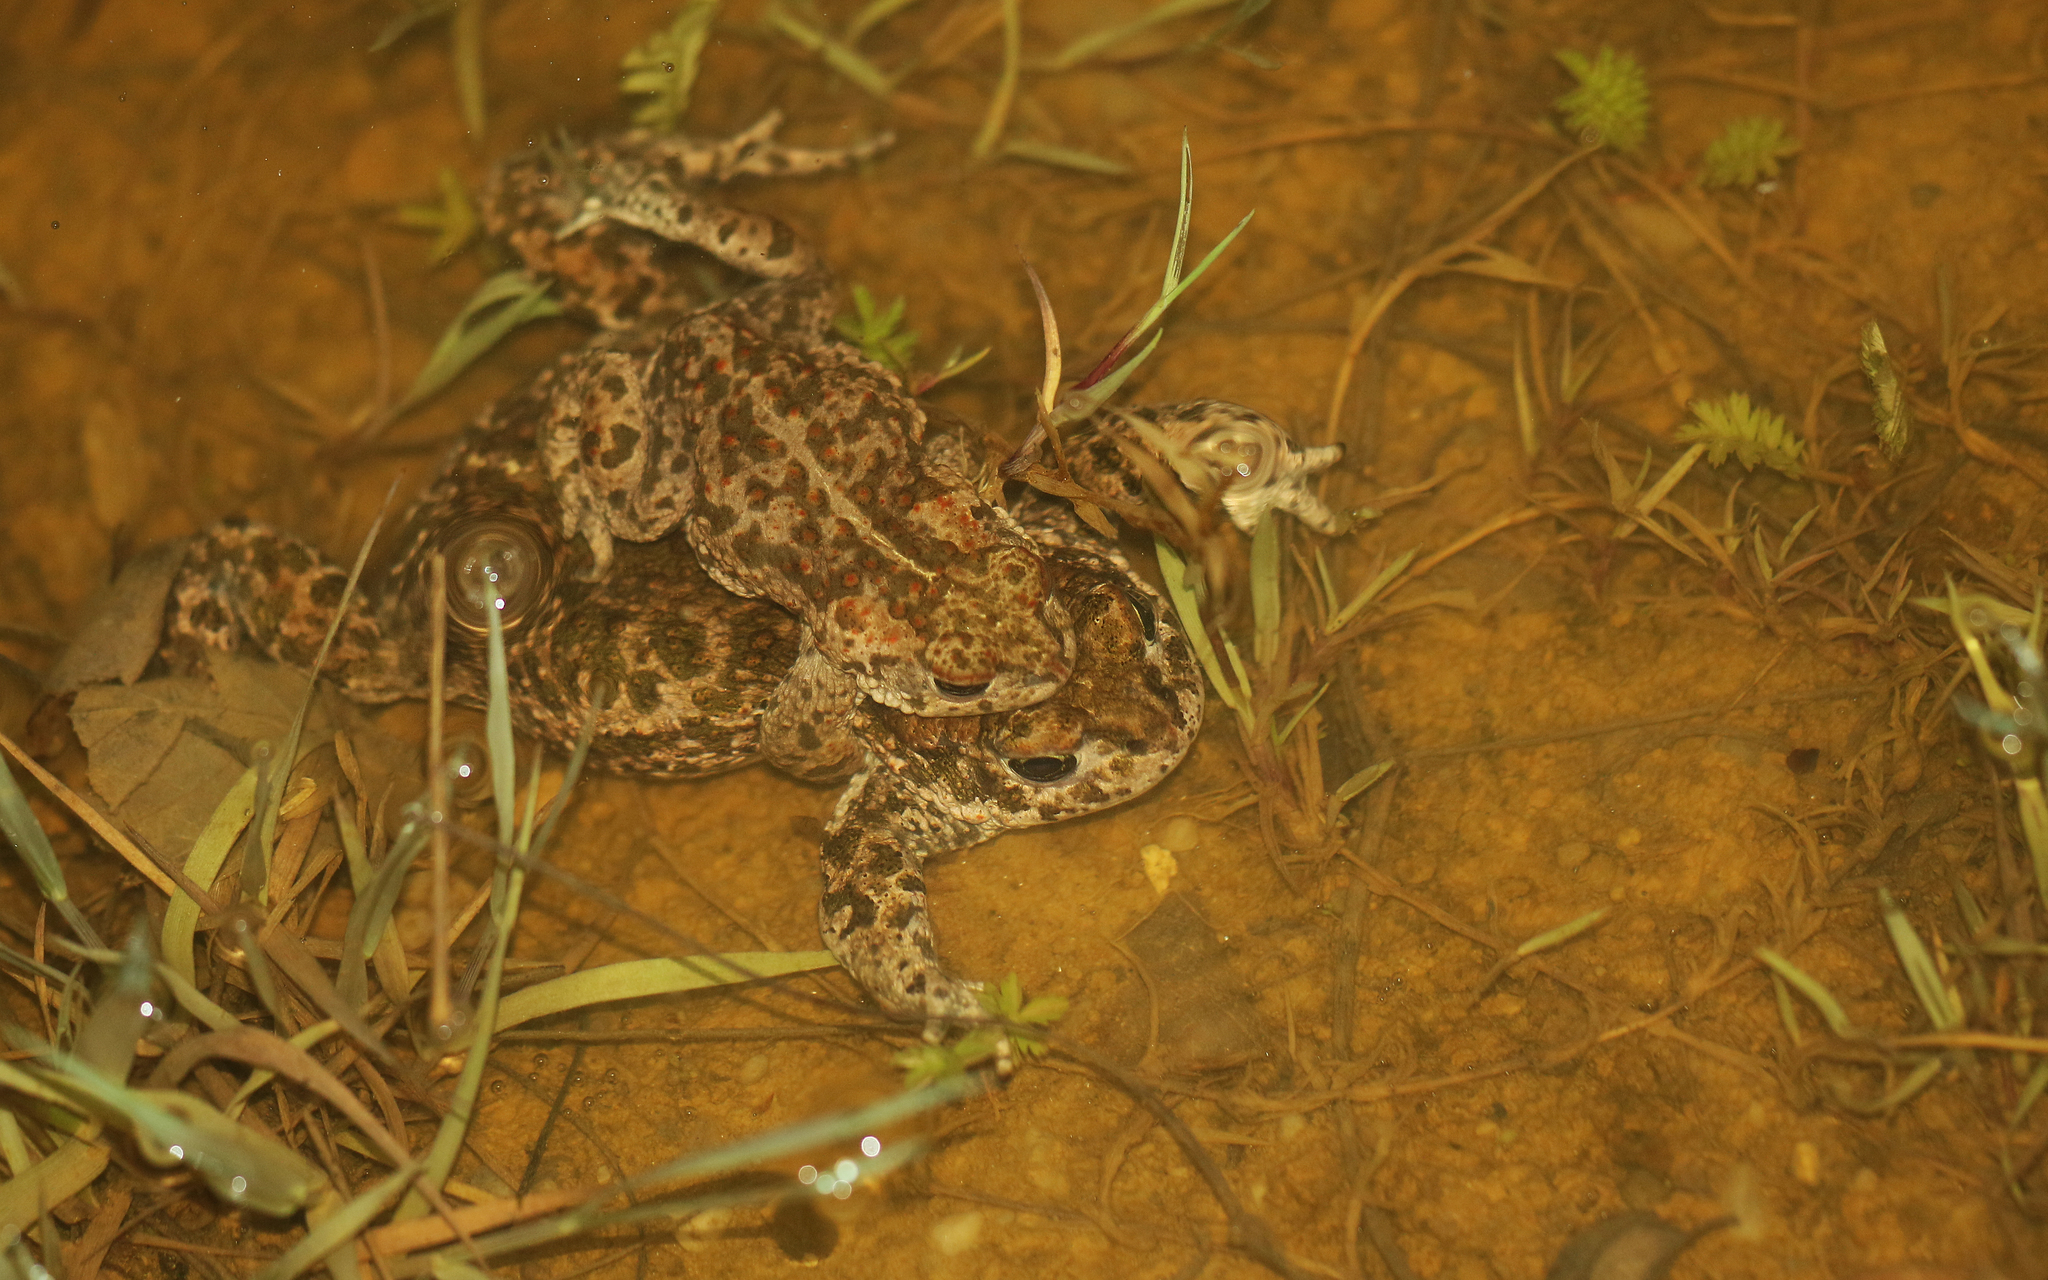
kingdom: Animalia
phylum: Chordata
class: Amphibia
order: Anura
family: Bufonidae
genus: Epidalea
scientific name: Epidalea calamita
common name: Natterjack toad
